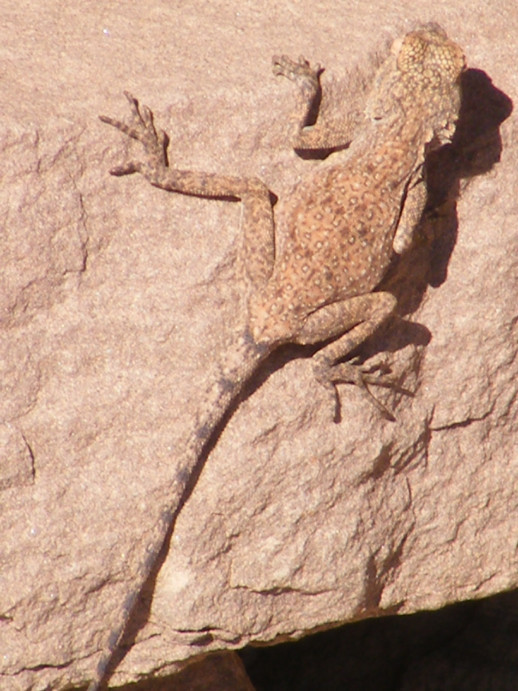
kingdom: Animalia
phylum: Chordata
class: Squamata
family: Agamidae
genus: Agama
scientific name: Agama atra
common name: Southern african rock agama
